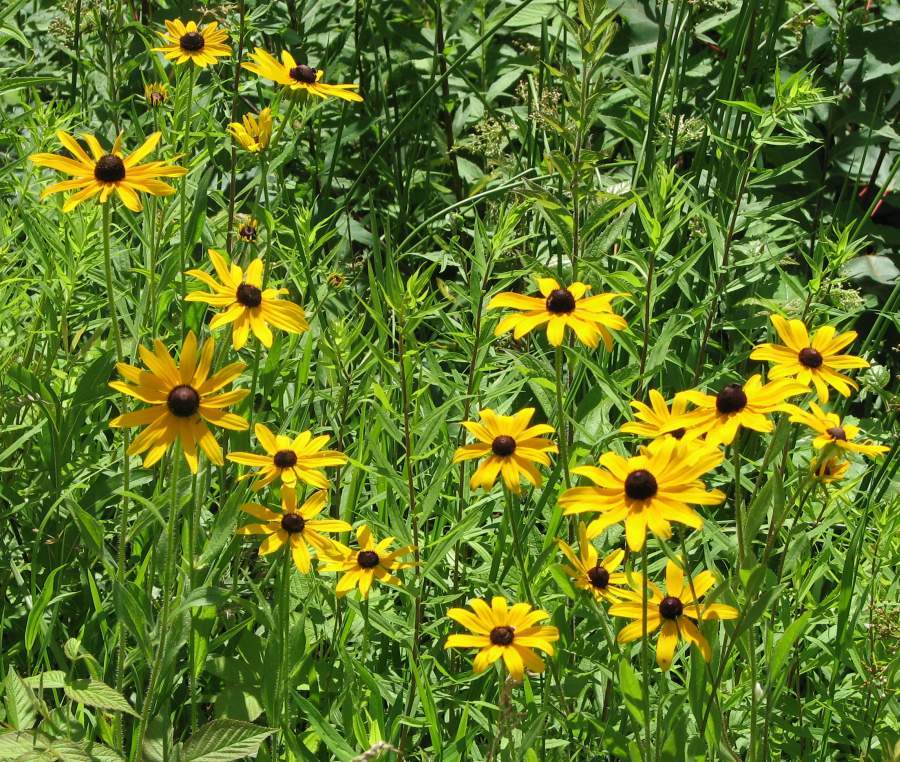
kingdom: Plantae
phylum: Tracheophyta
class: Magnoliopsida
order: Asterales
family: Asteraceae
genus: Rudbeckia
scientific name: Rudbeckia hirta
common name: Black-eyed-susan
